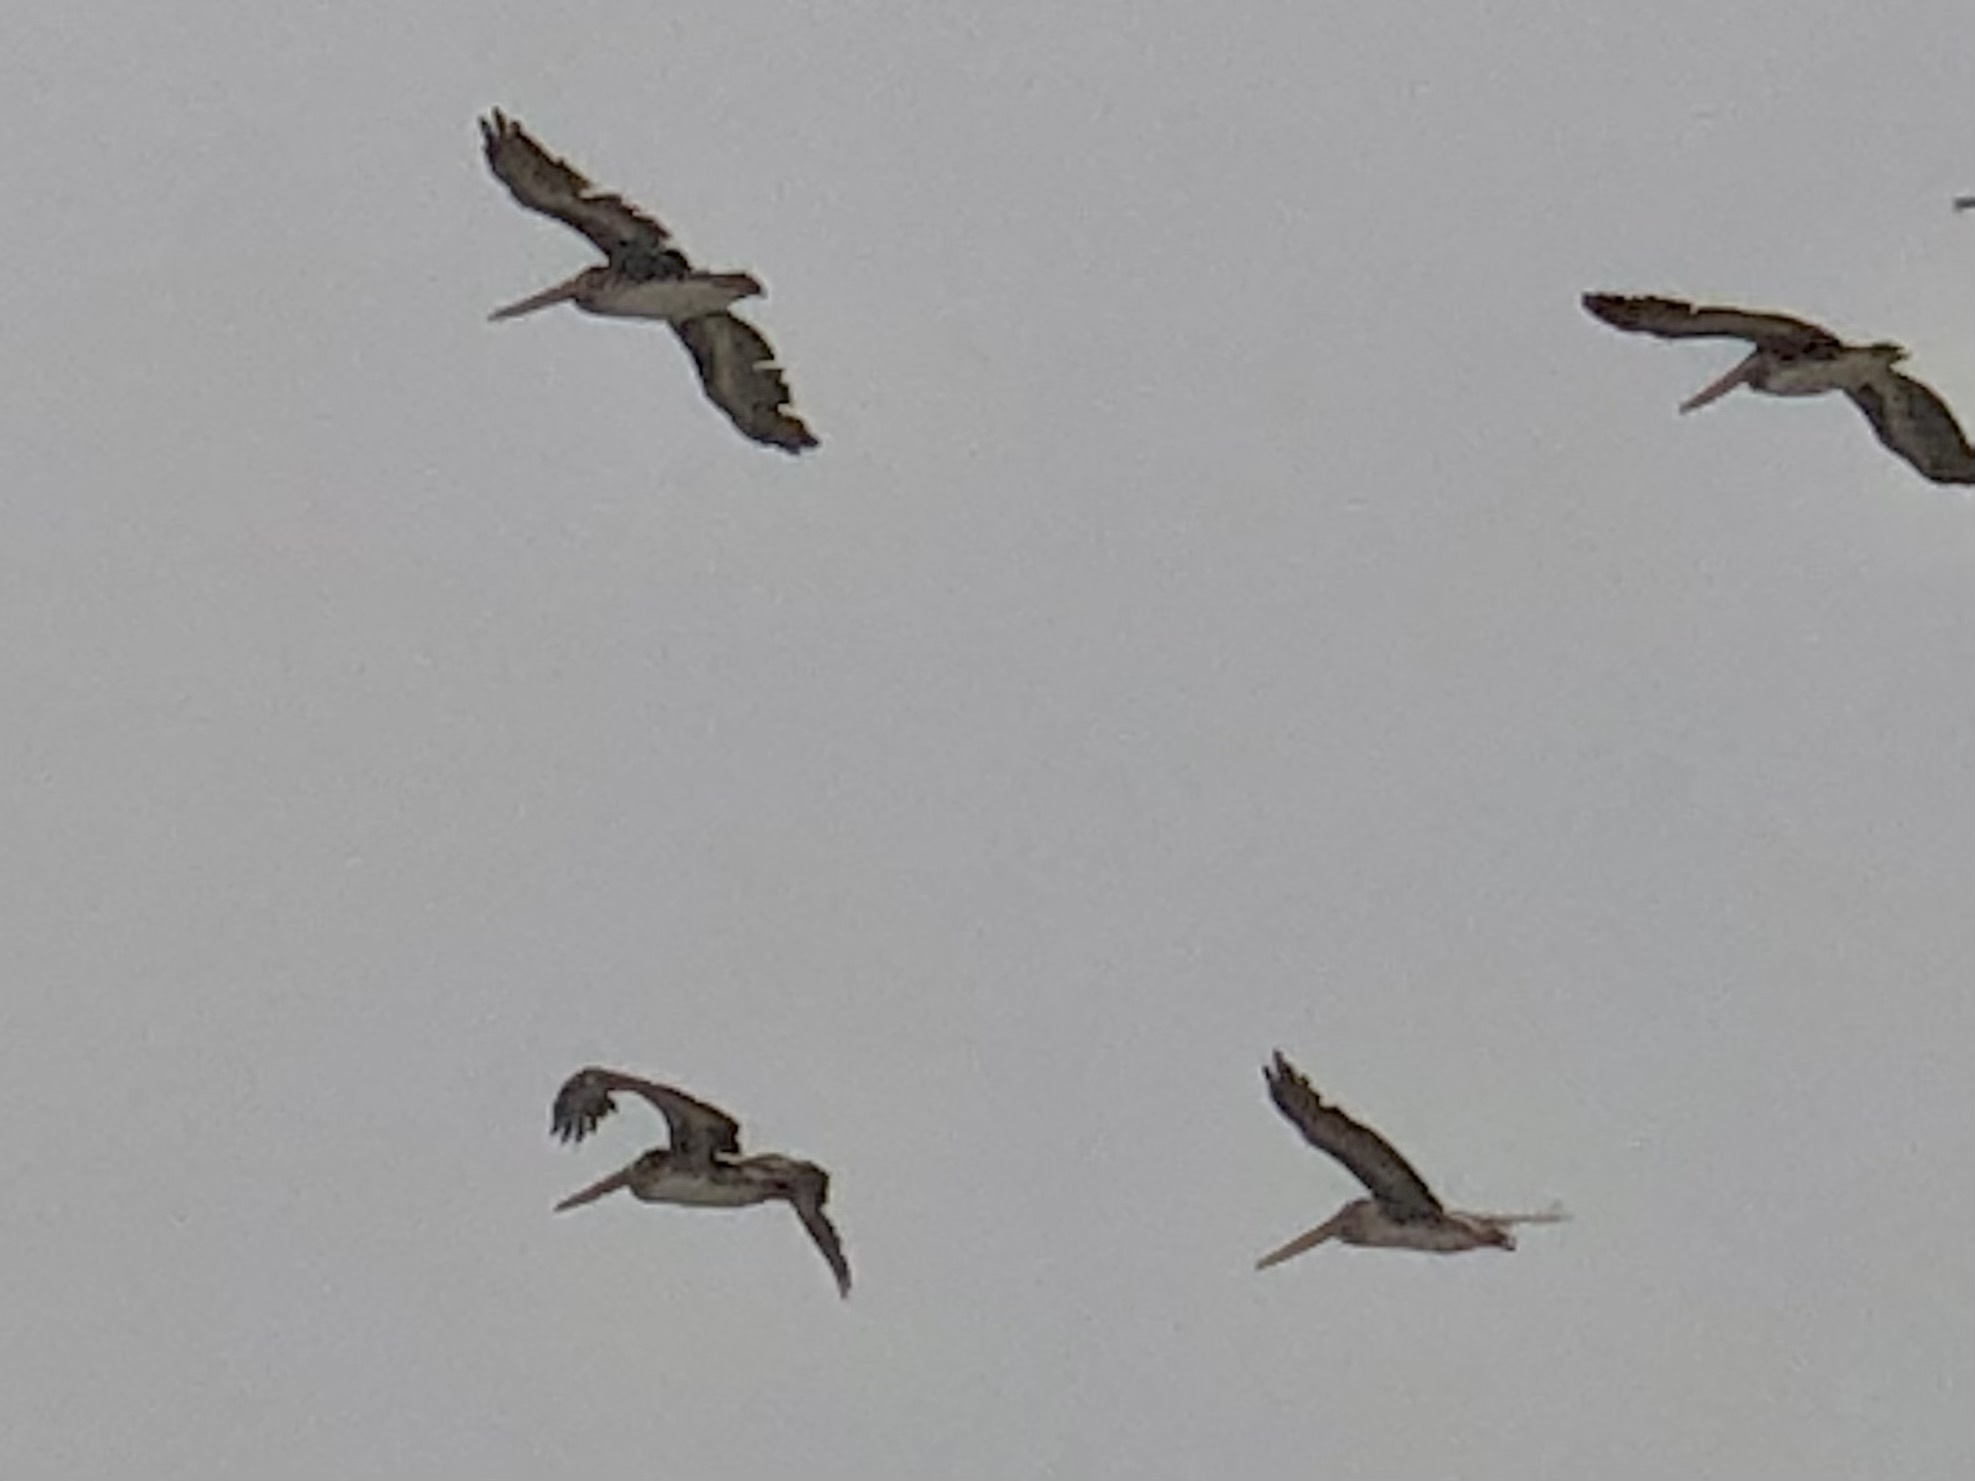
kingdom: Animalia
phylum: Chordata
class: Aves
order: Pelecaniformes
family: Pelecanidae
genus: Pelecanus
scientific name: Pelecanus occidentalis
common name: Brown pelican
